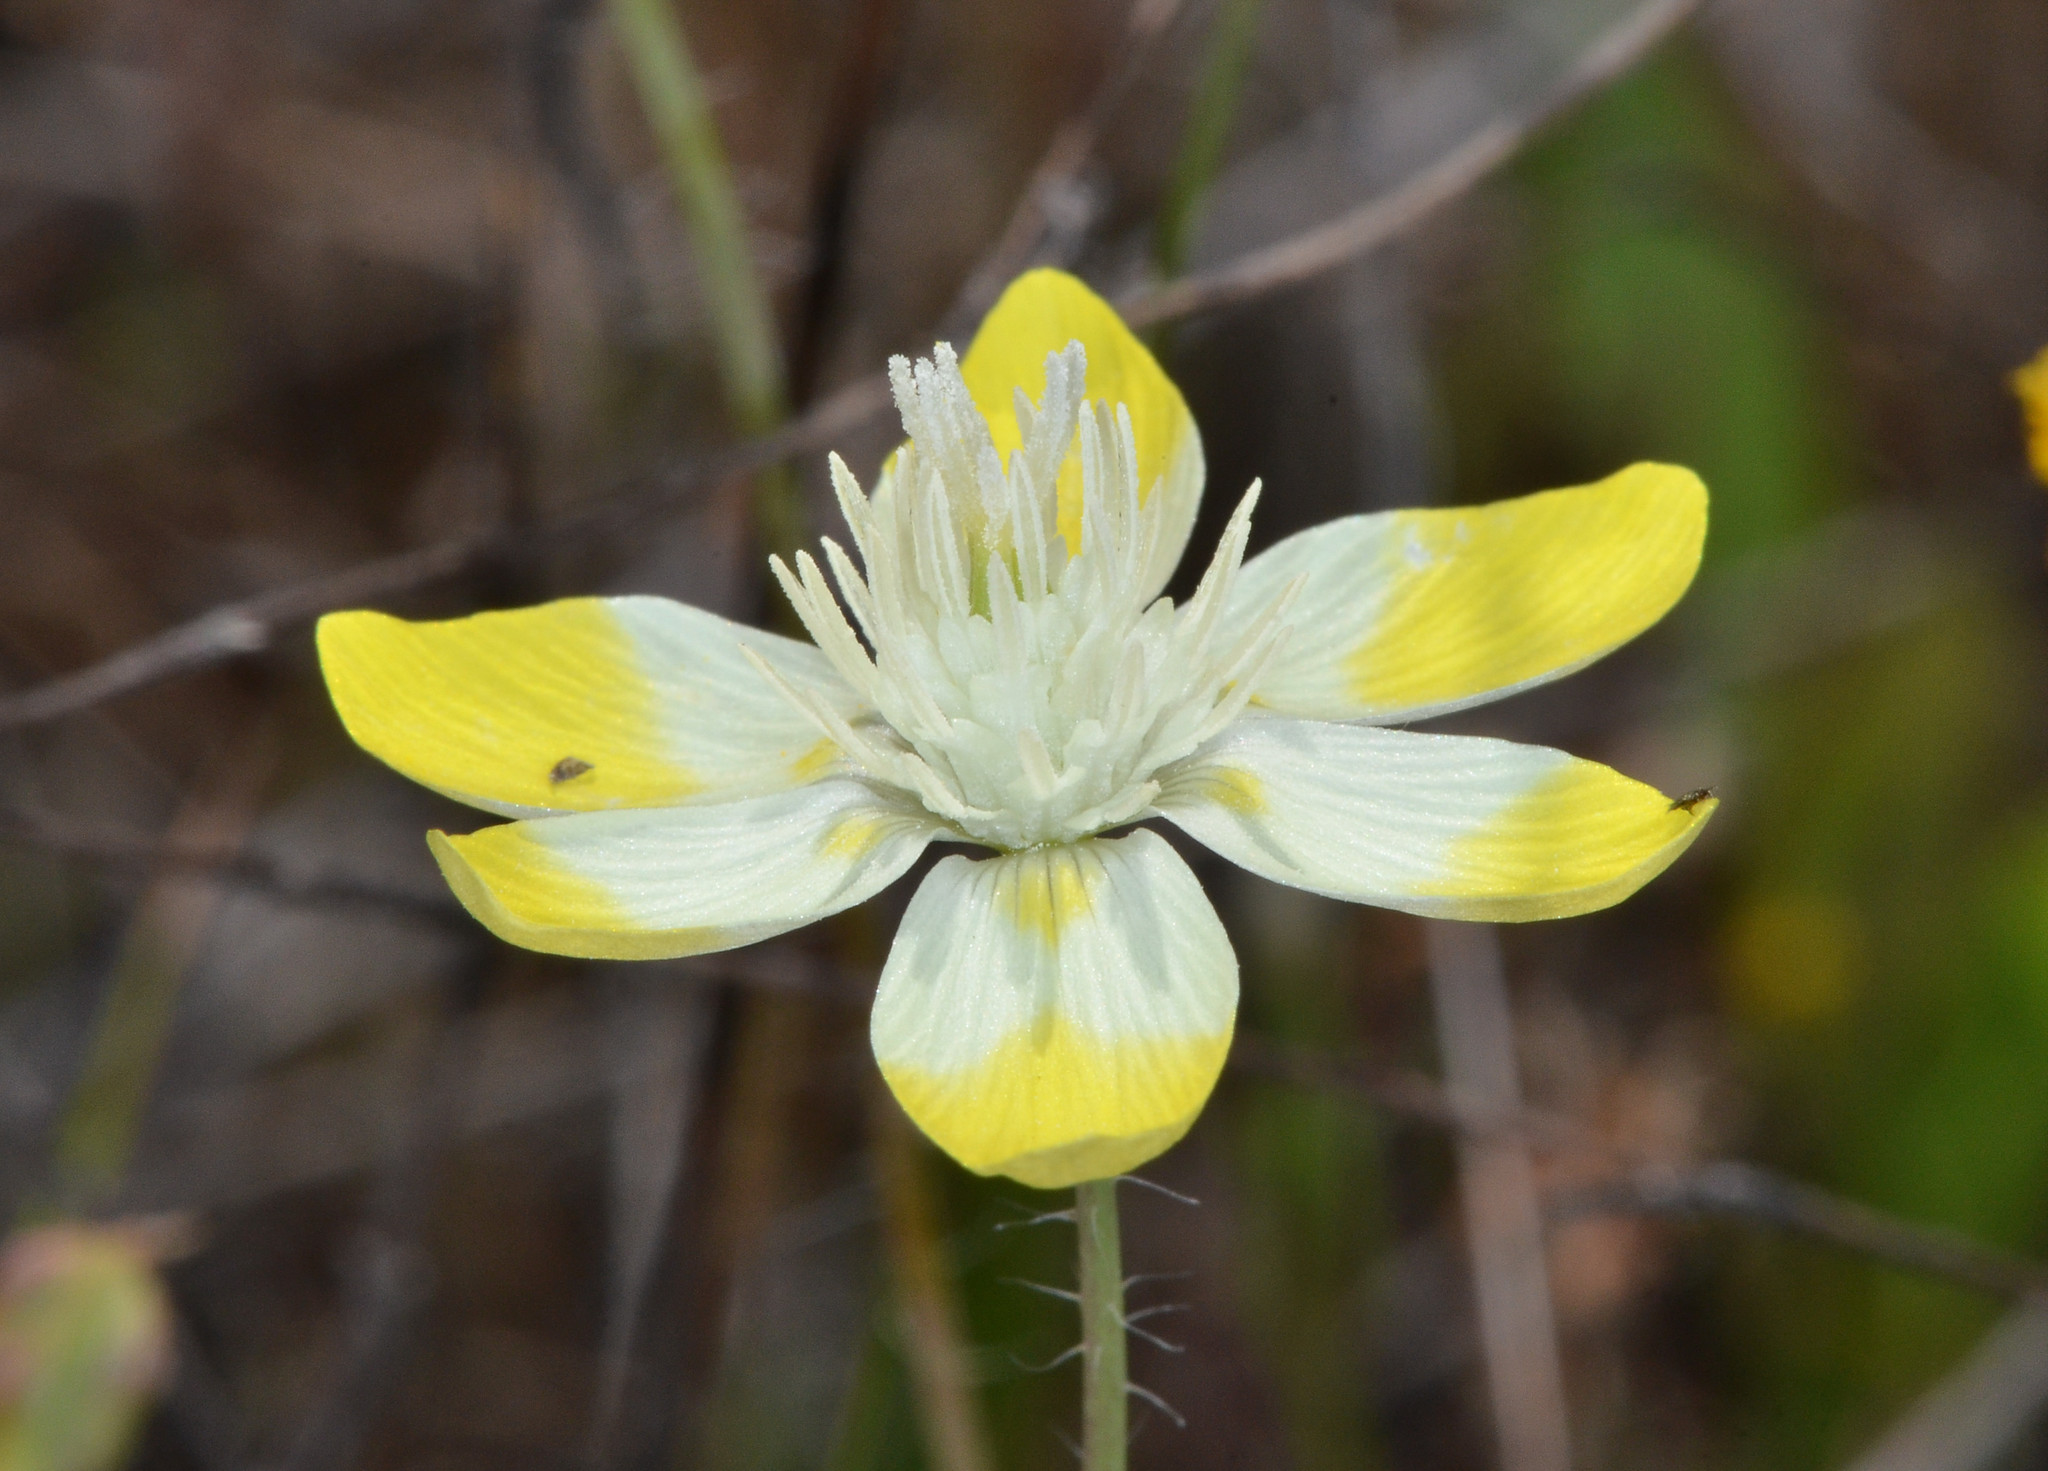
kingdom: Plantae
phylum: Tracheophyta
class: Magnoliopsida
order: Ranunculales
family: Papaveraceae
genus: Platystemon
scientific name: Platystemon californicus
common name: Cream-cups
